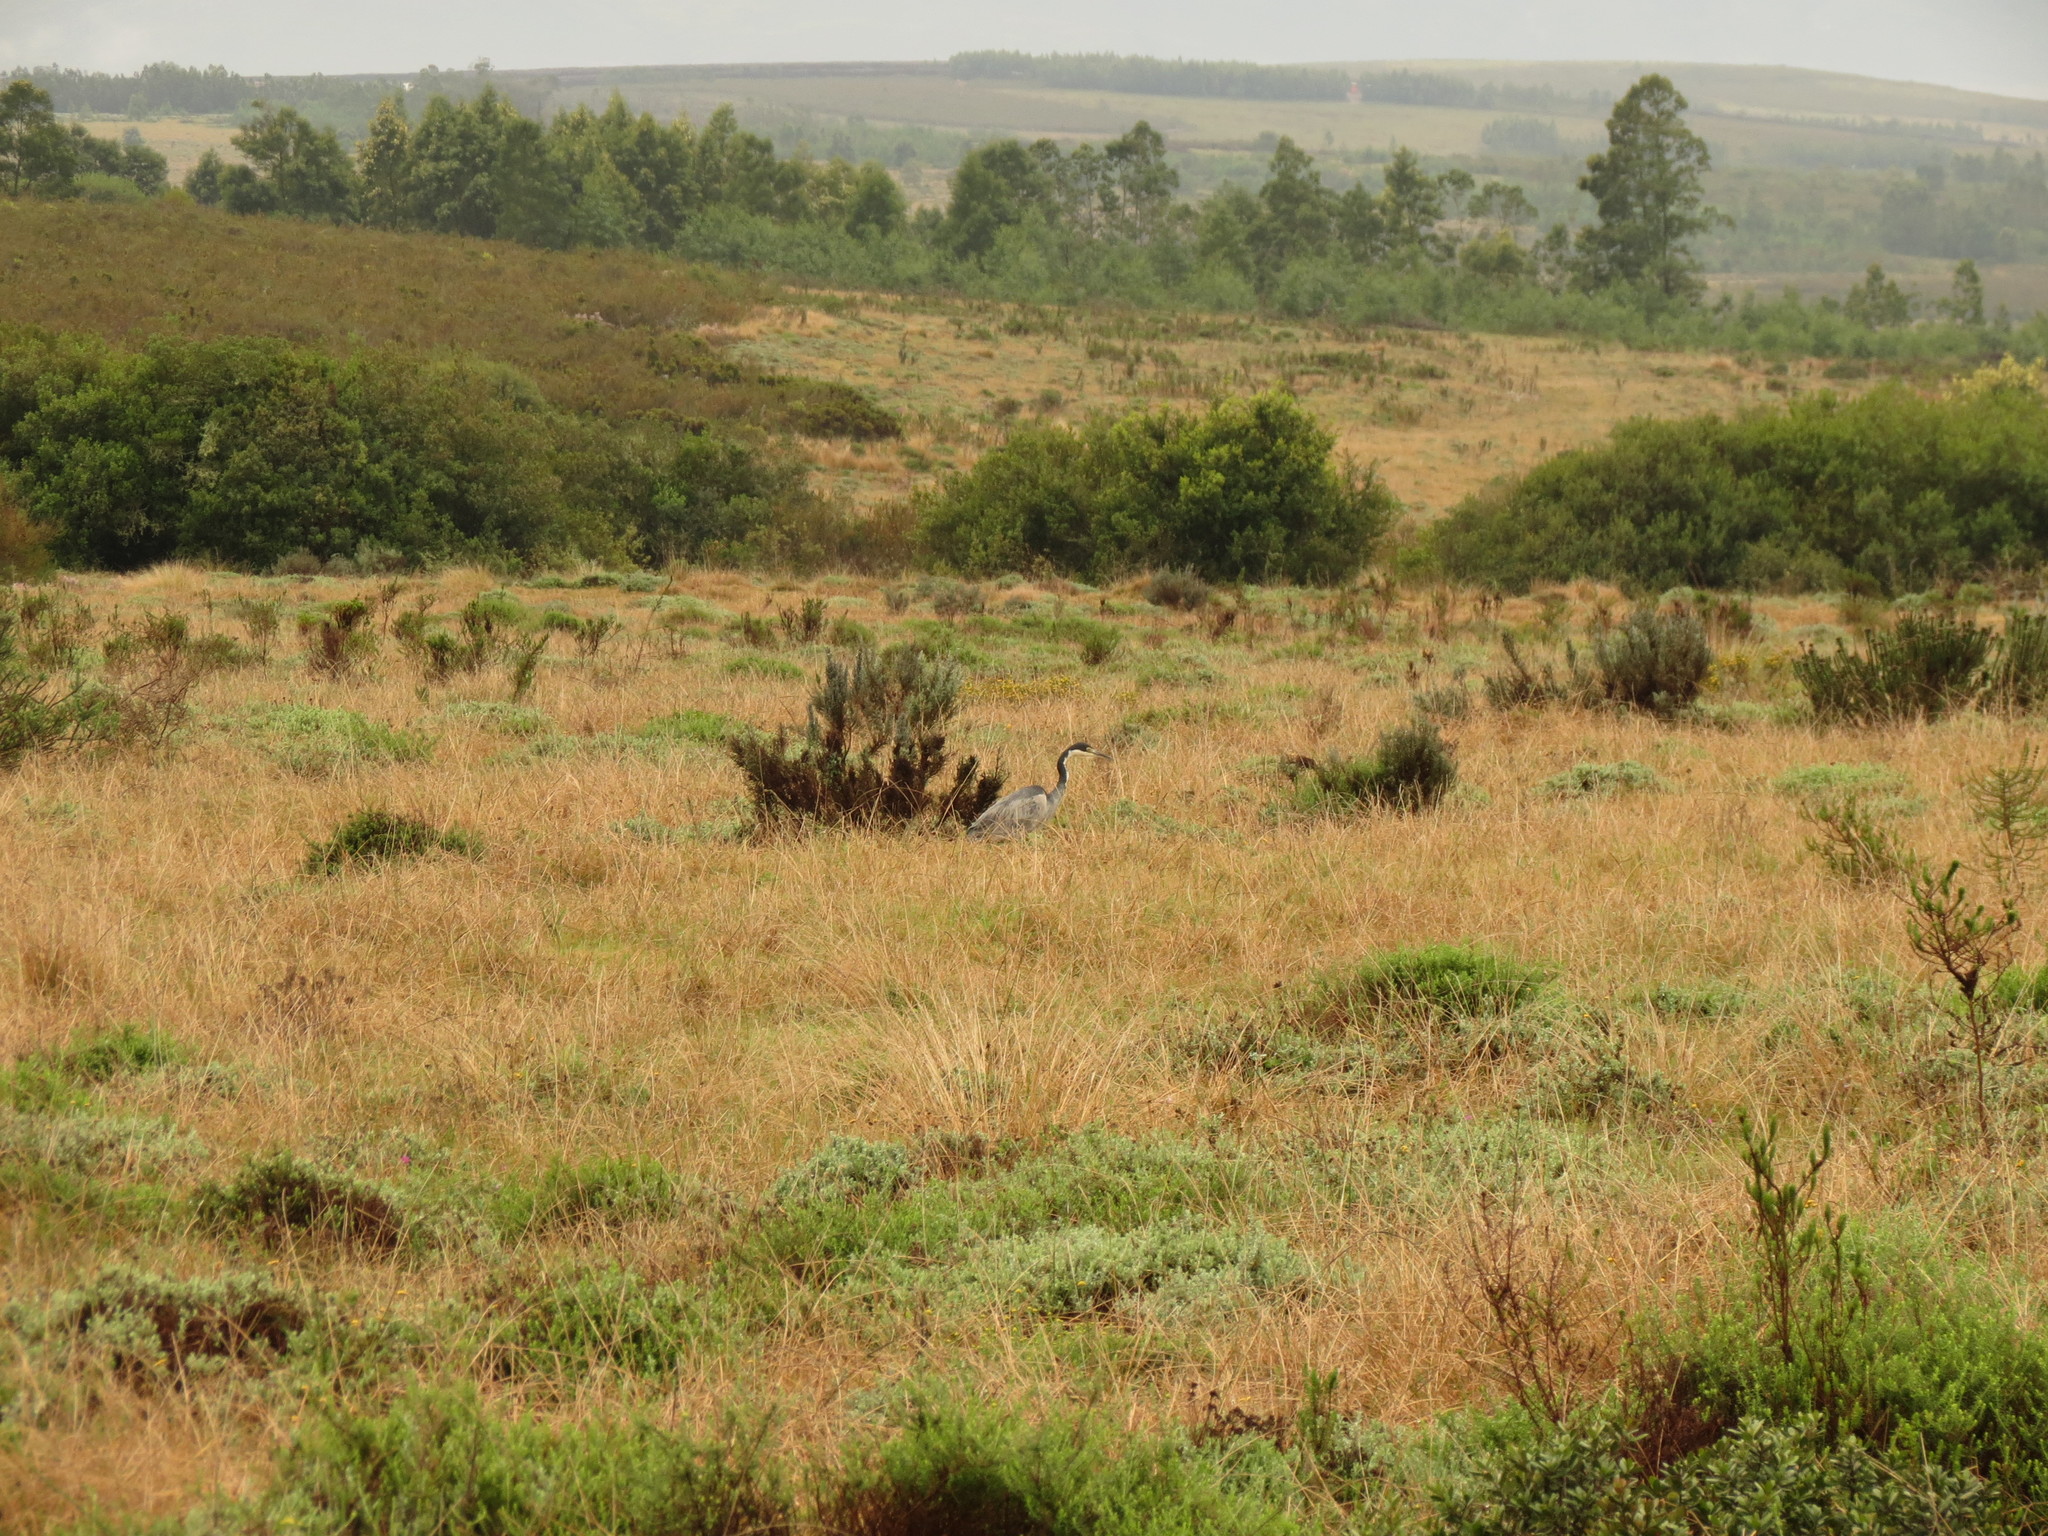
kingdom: Animalia
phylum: Chordata
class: Aves
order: Pelecaniformes
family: Ardeidae
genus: Ardea
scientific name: Ardea melanocephala
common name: Black-headed heron
